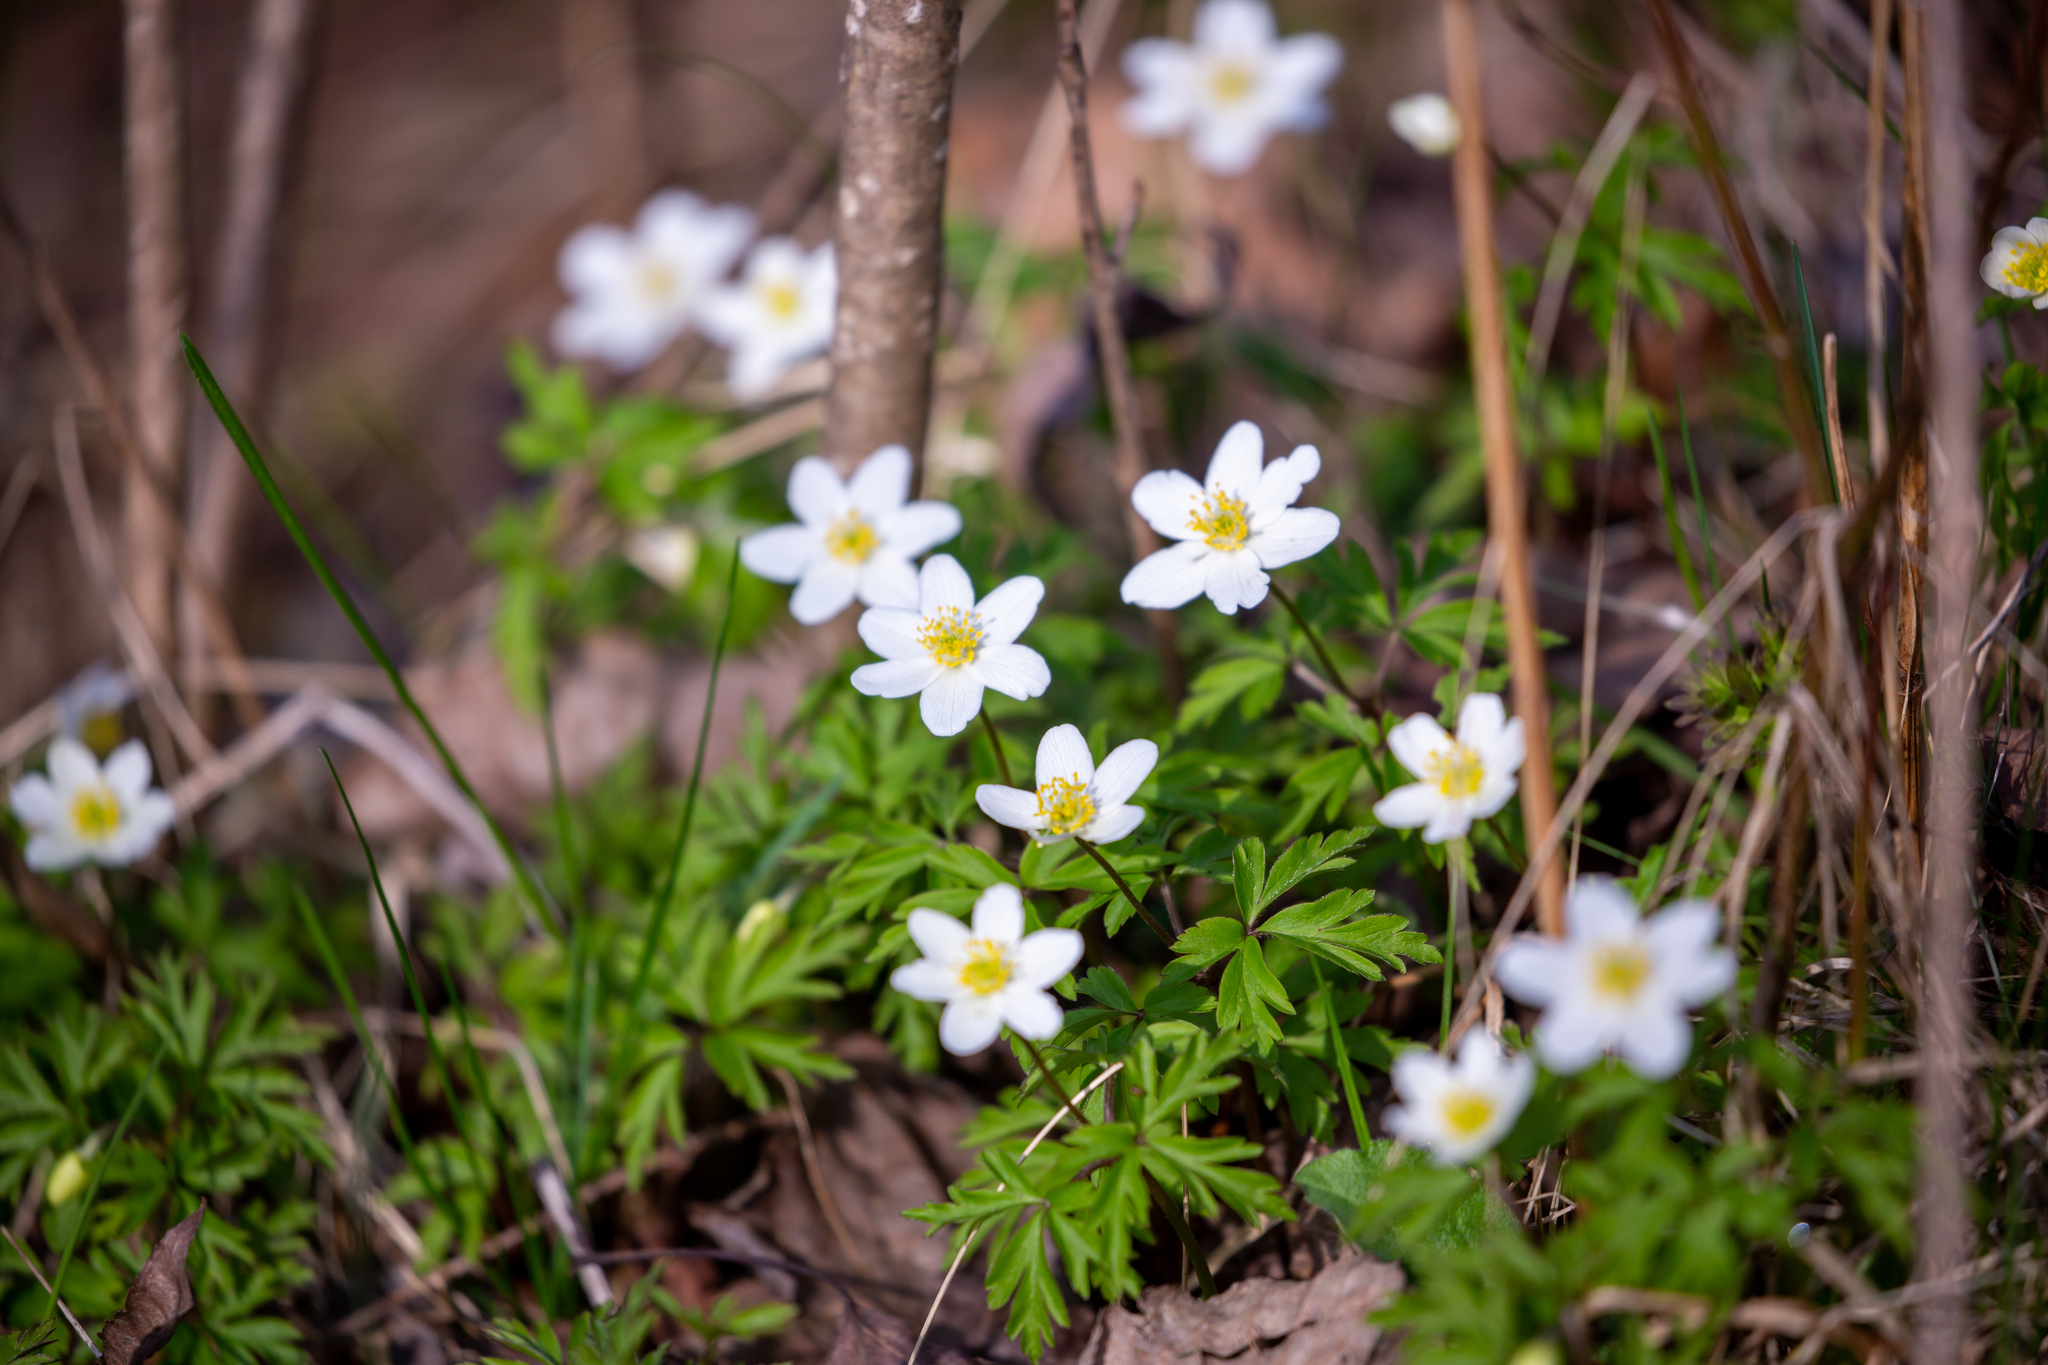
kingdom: Plantae
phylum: Tracheophyta
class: Magnoliopsida
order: Ranunculales
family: Ranunculaceae
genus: Anemone
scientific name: Anemone nemorosa
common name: Wood anemone
